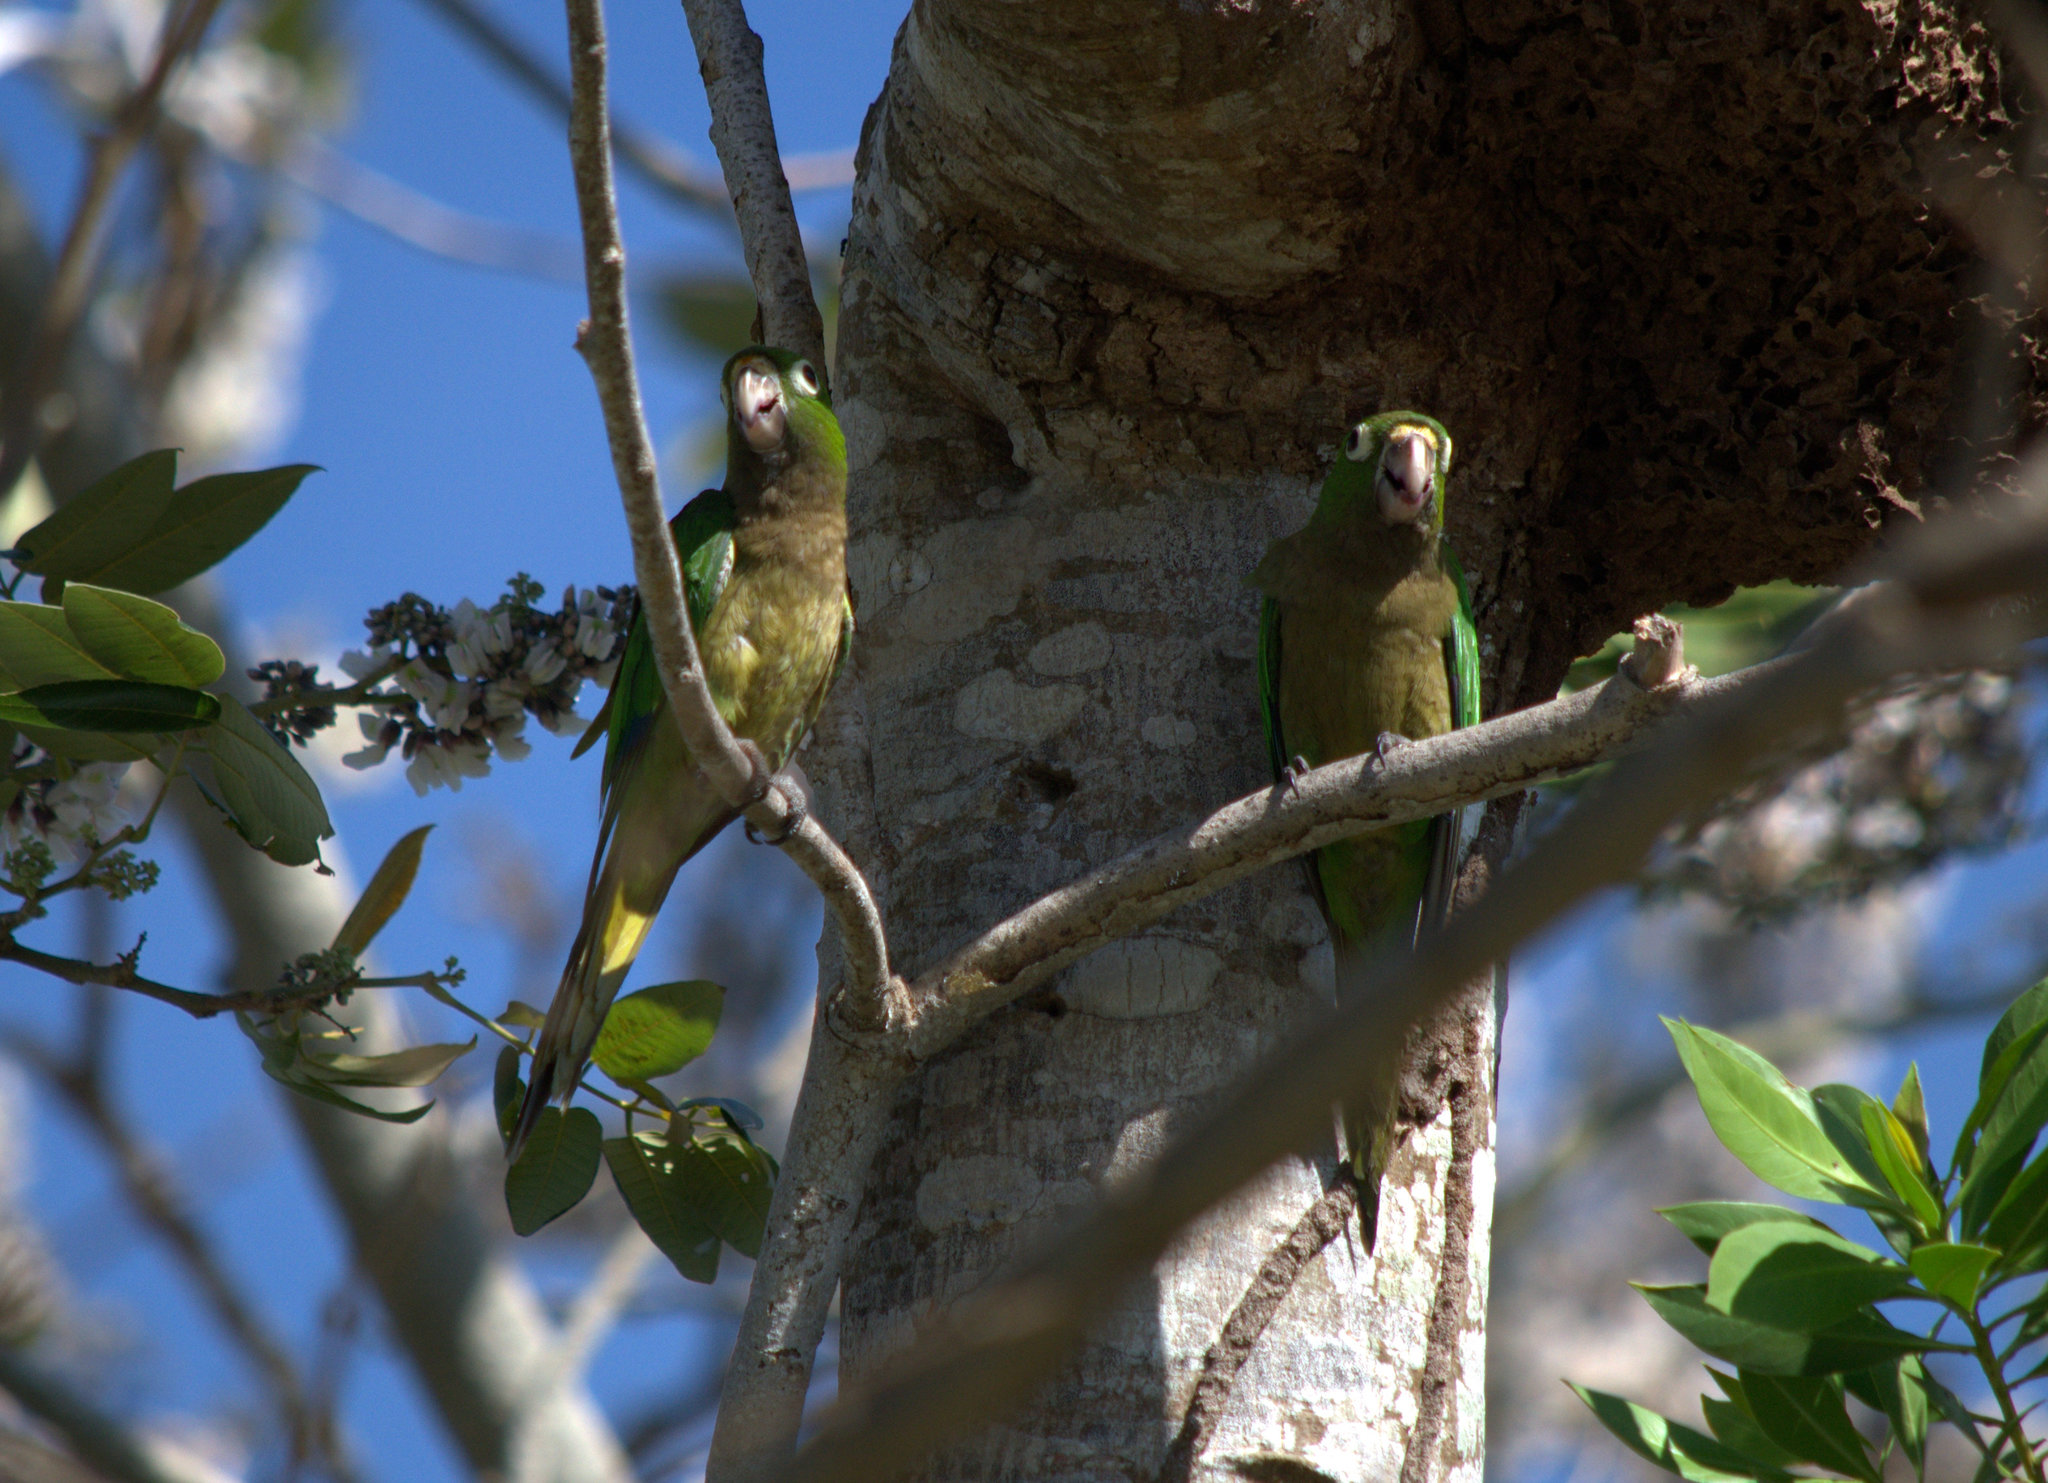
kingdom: Animalia
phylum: Chordata
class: Aves
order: Psittaciformes
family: Psittacidae
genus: Aratinga
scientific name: Aratinga nana
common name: Olive-throated parakeet
